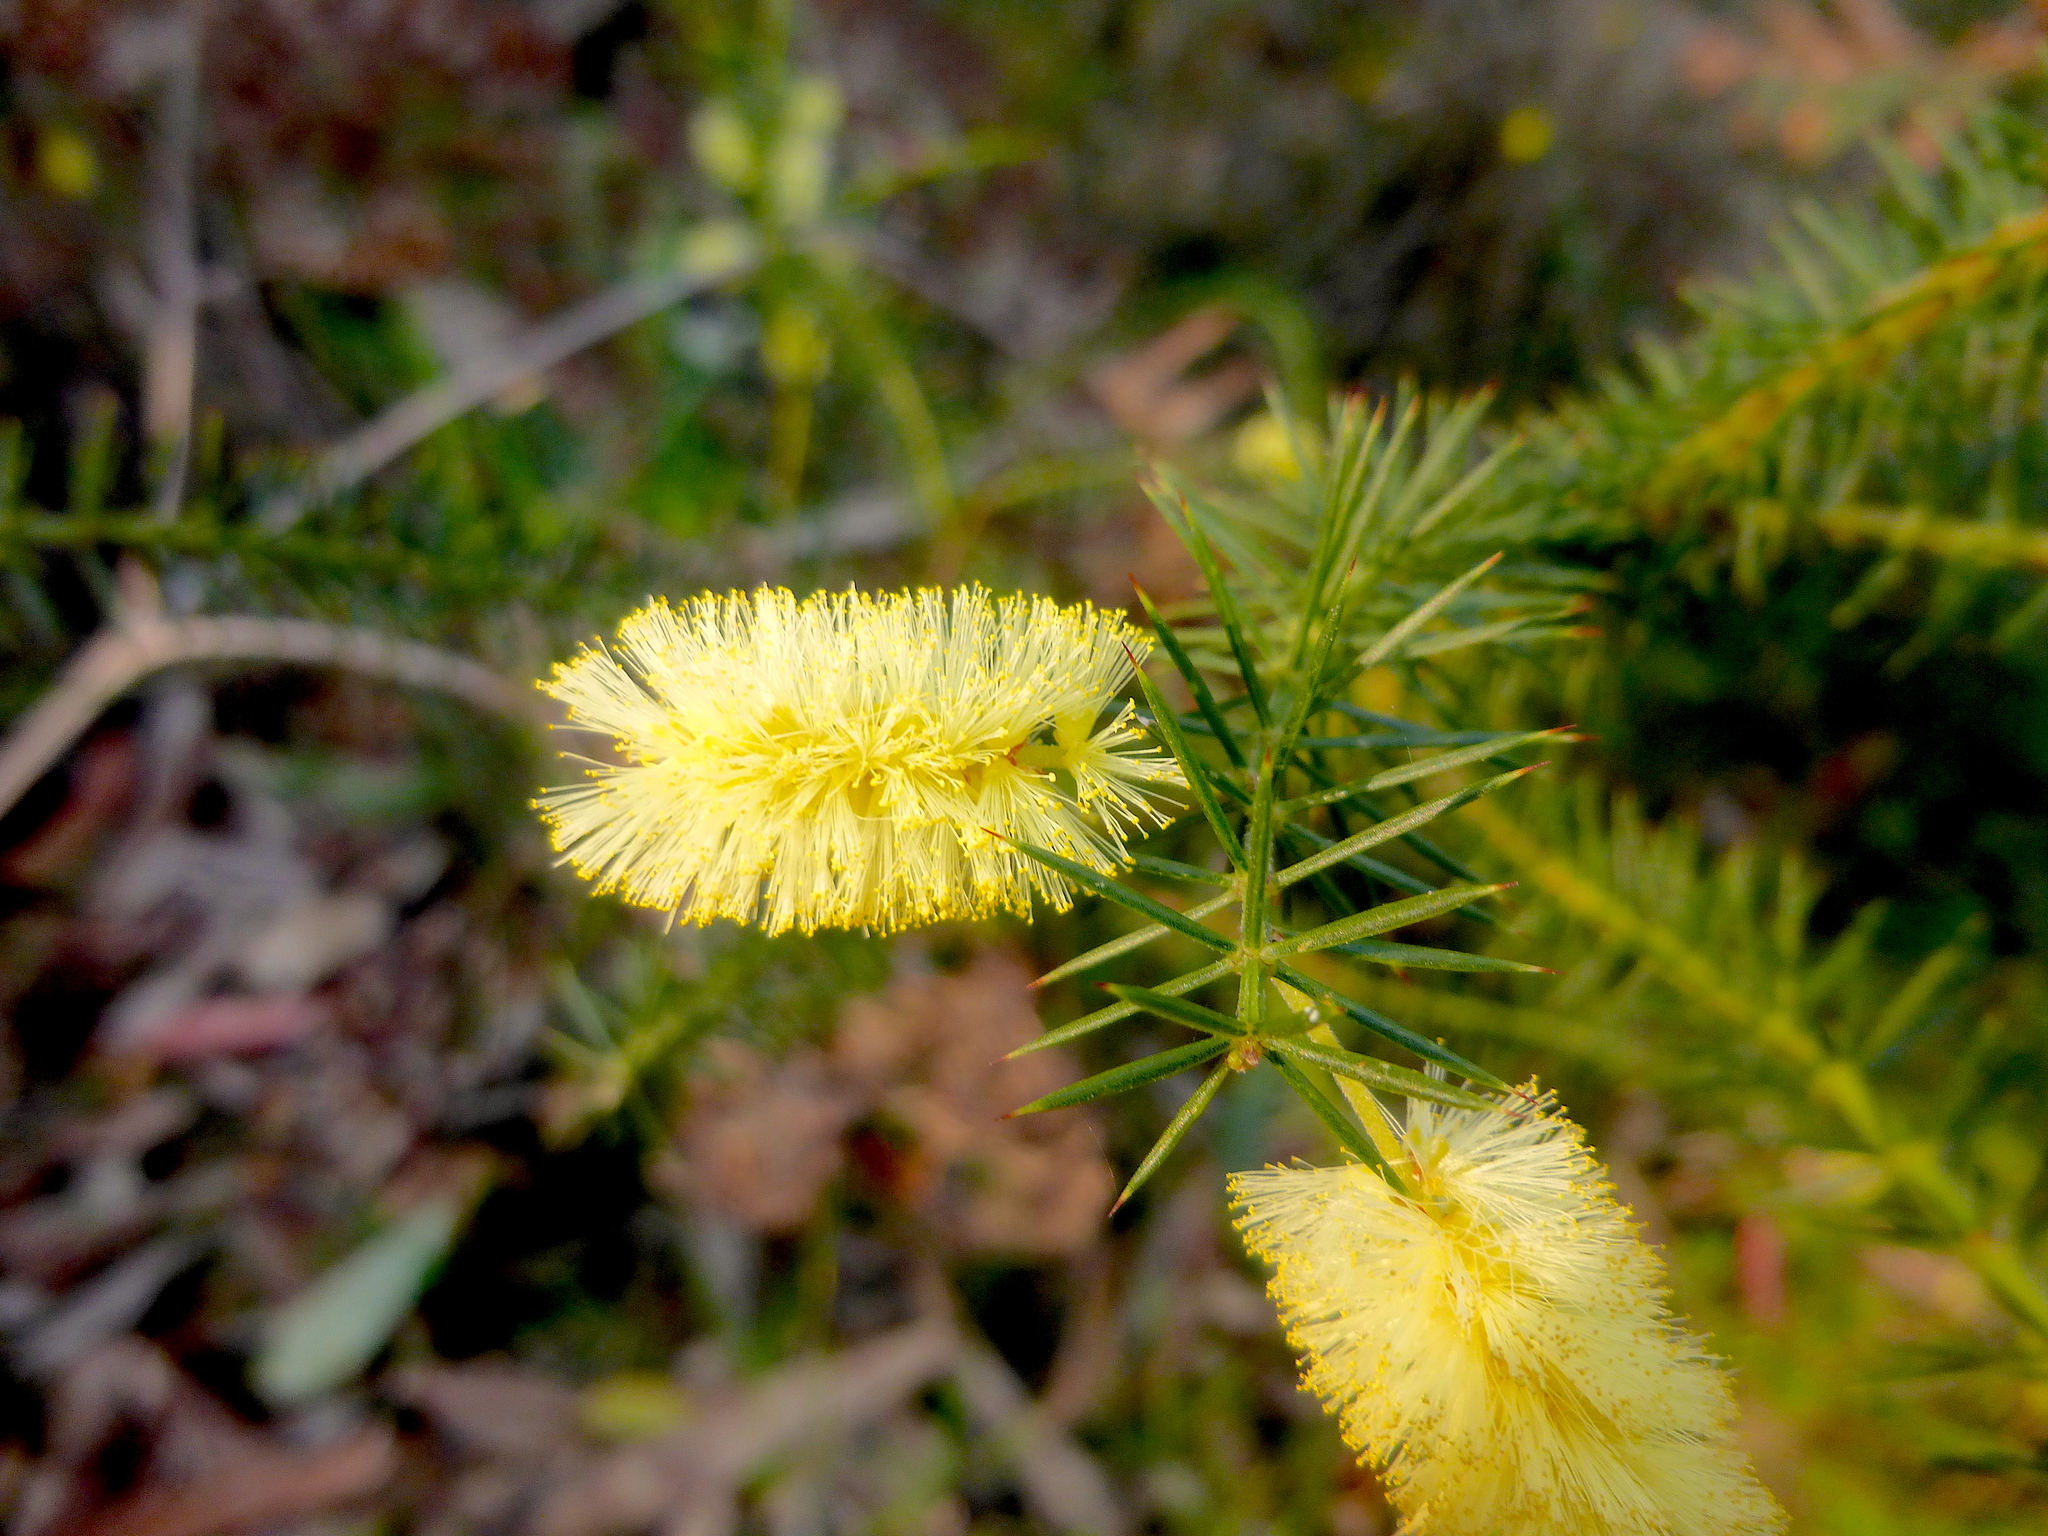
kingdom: Plantae
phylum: Tracheophyta
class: Magnoliopsida
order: Fabales
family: Fabaceae
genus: Acacia
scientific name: Acacia verticillata
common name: Prickly moses
